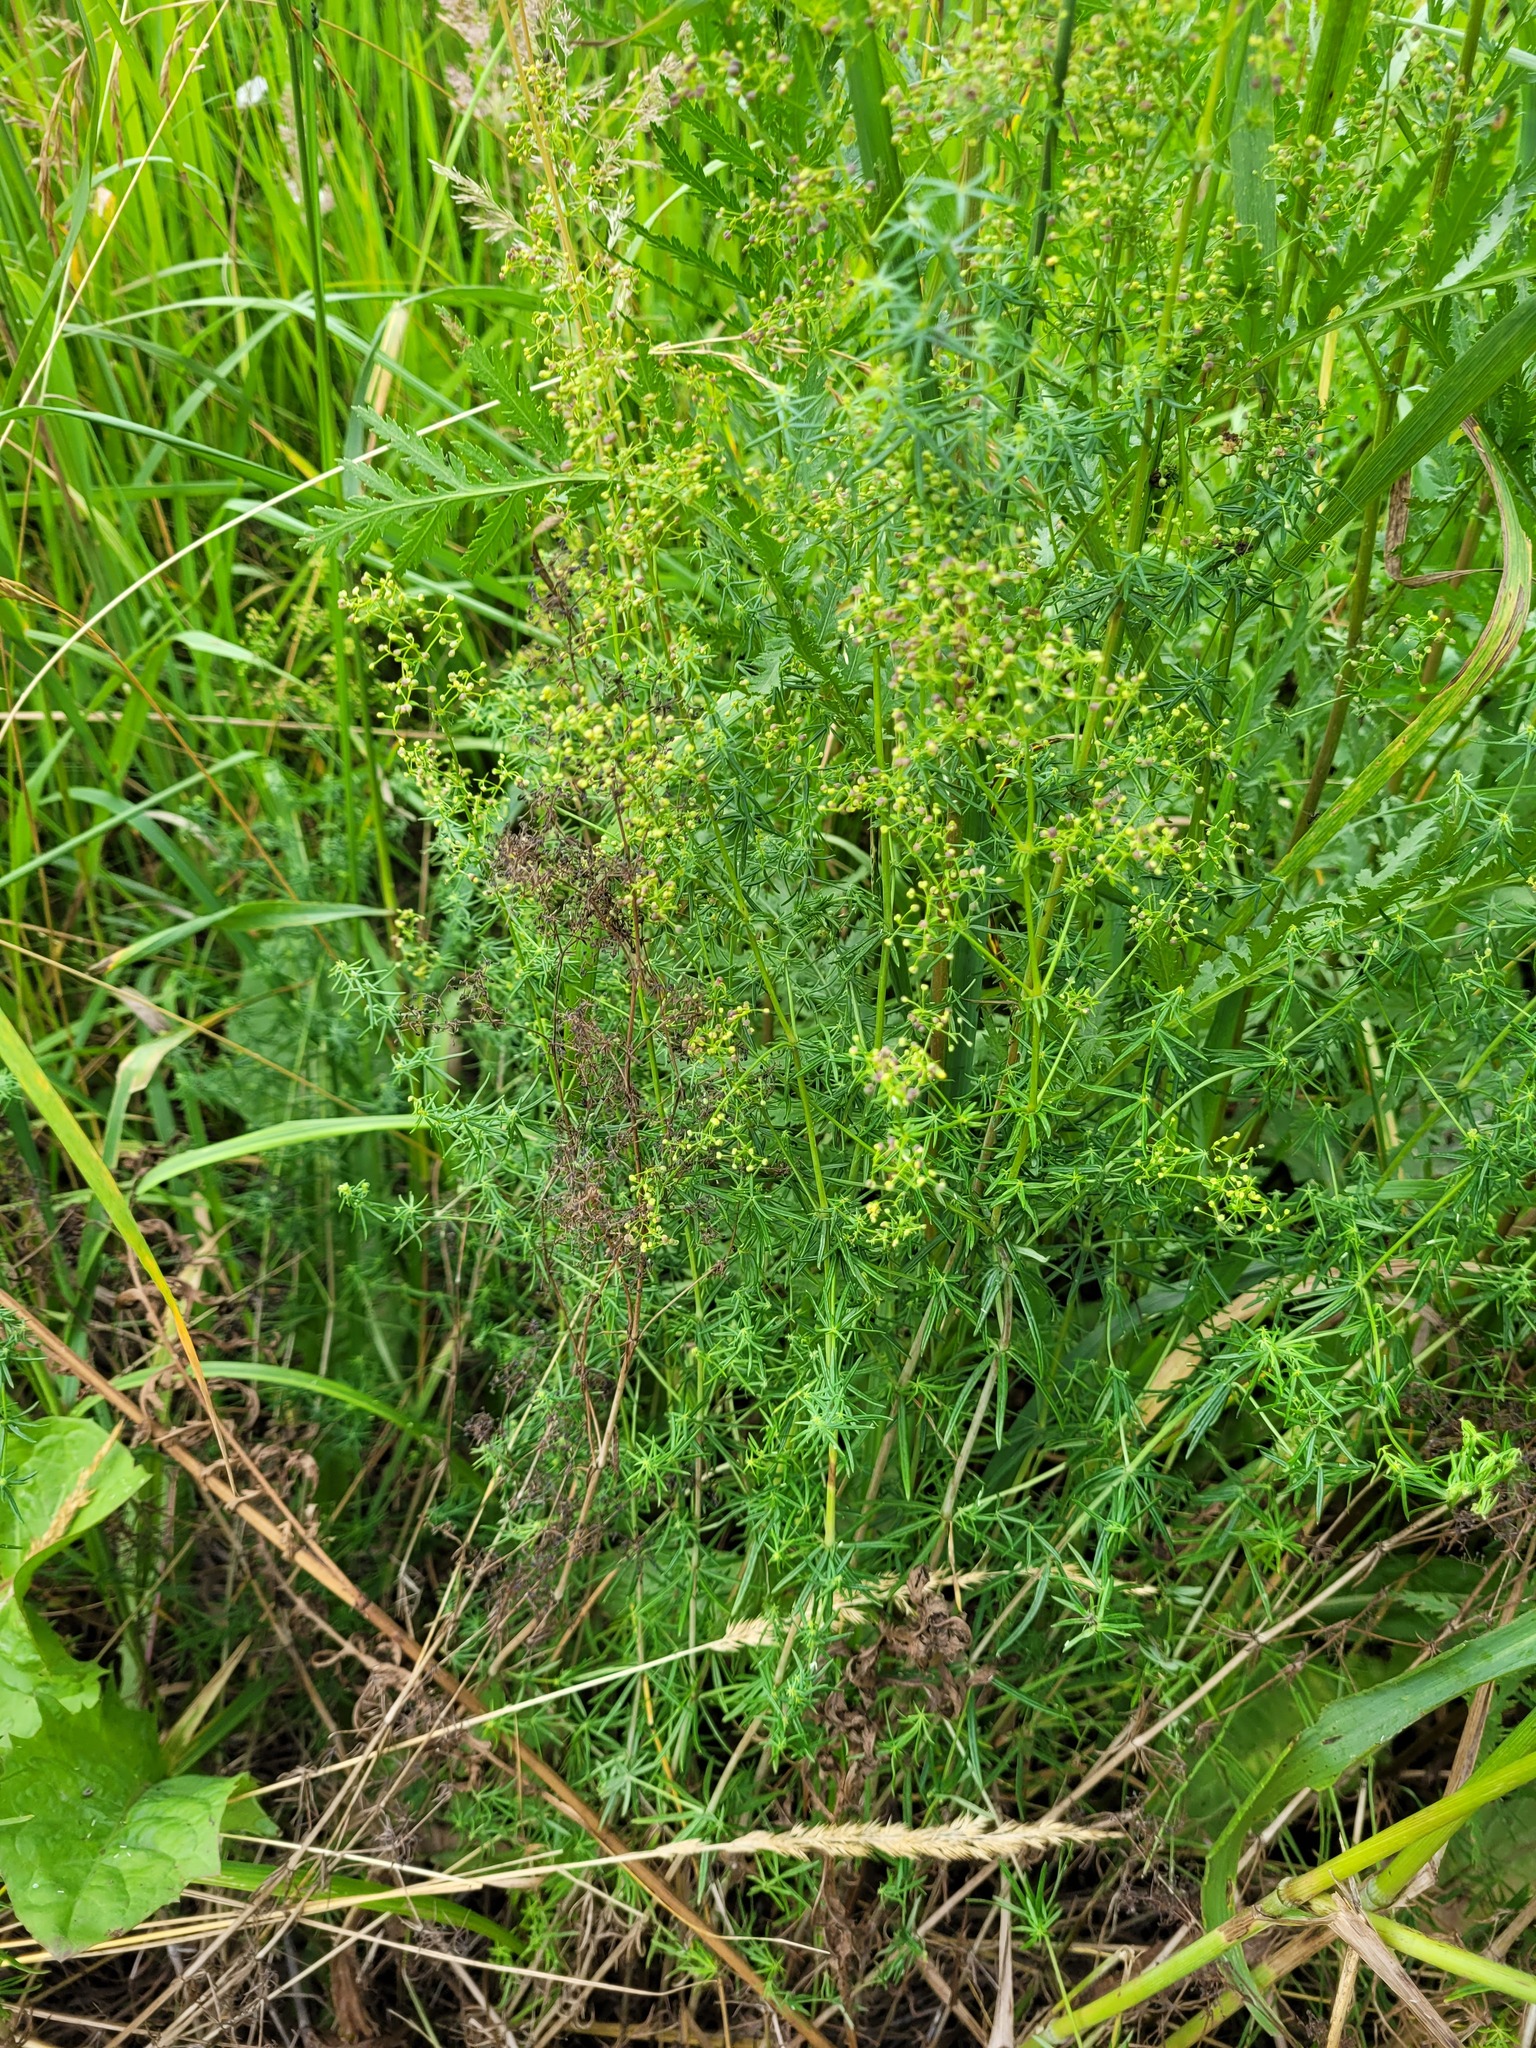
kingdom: Plantae
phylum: Tracheophyta
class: Magnoliopsida
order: Gentianales
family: Rubiaceae
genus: Galium
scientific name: Galium verum
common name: Lady's bedstraw
